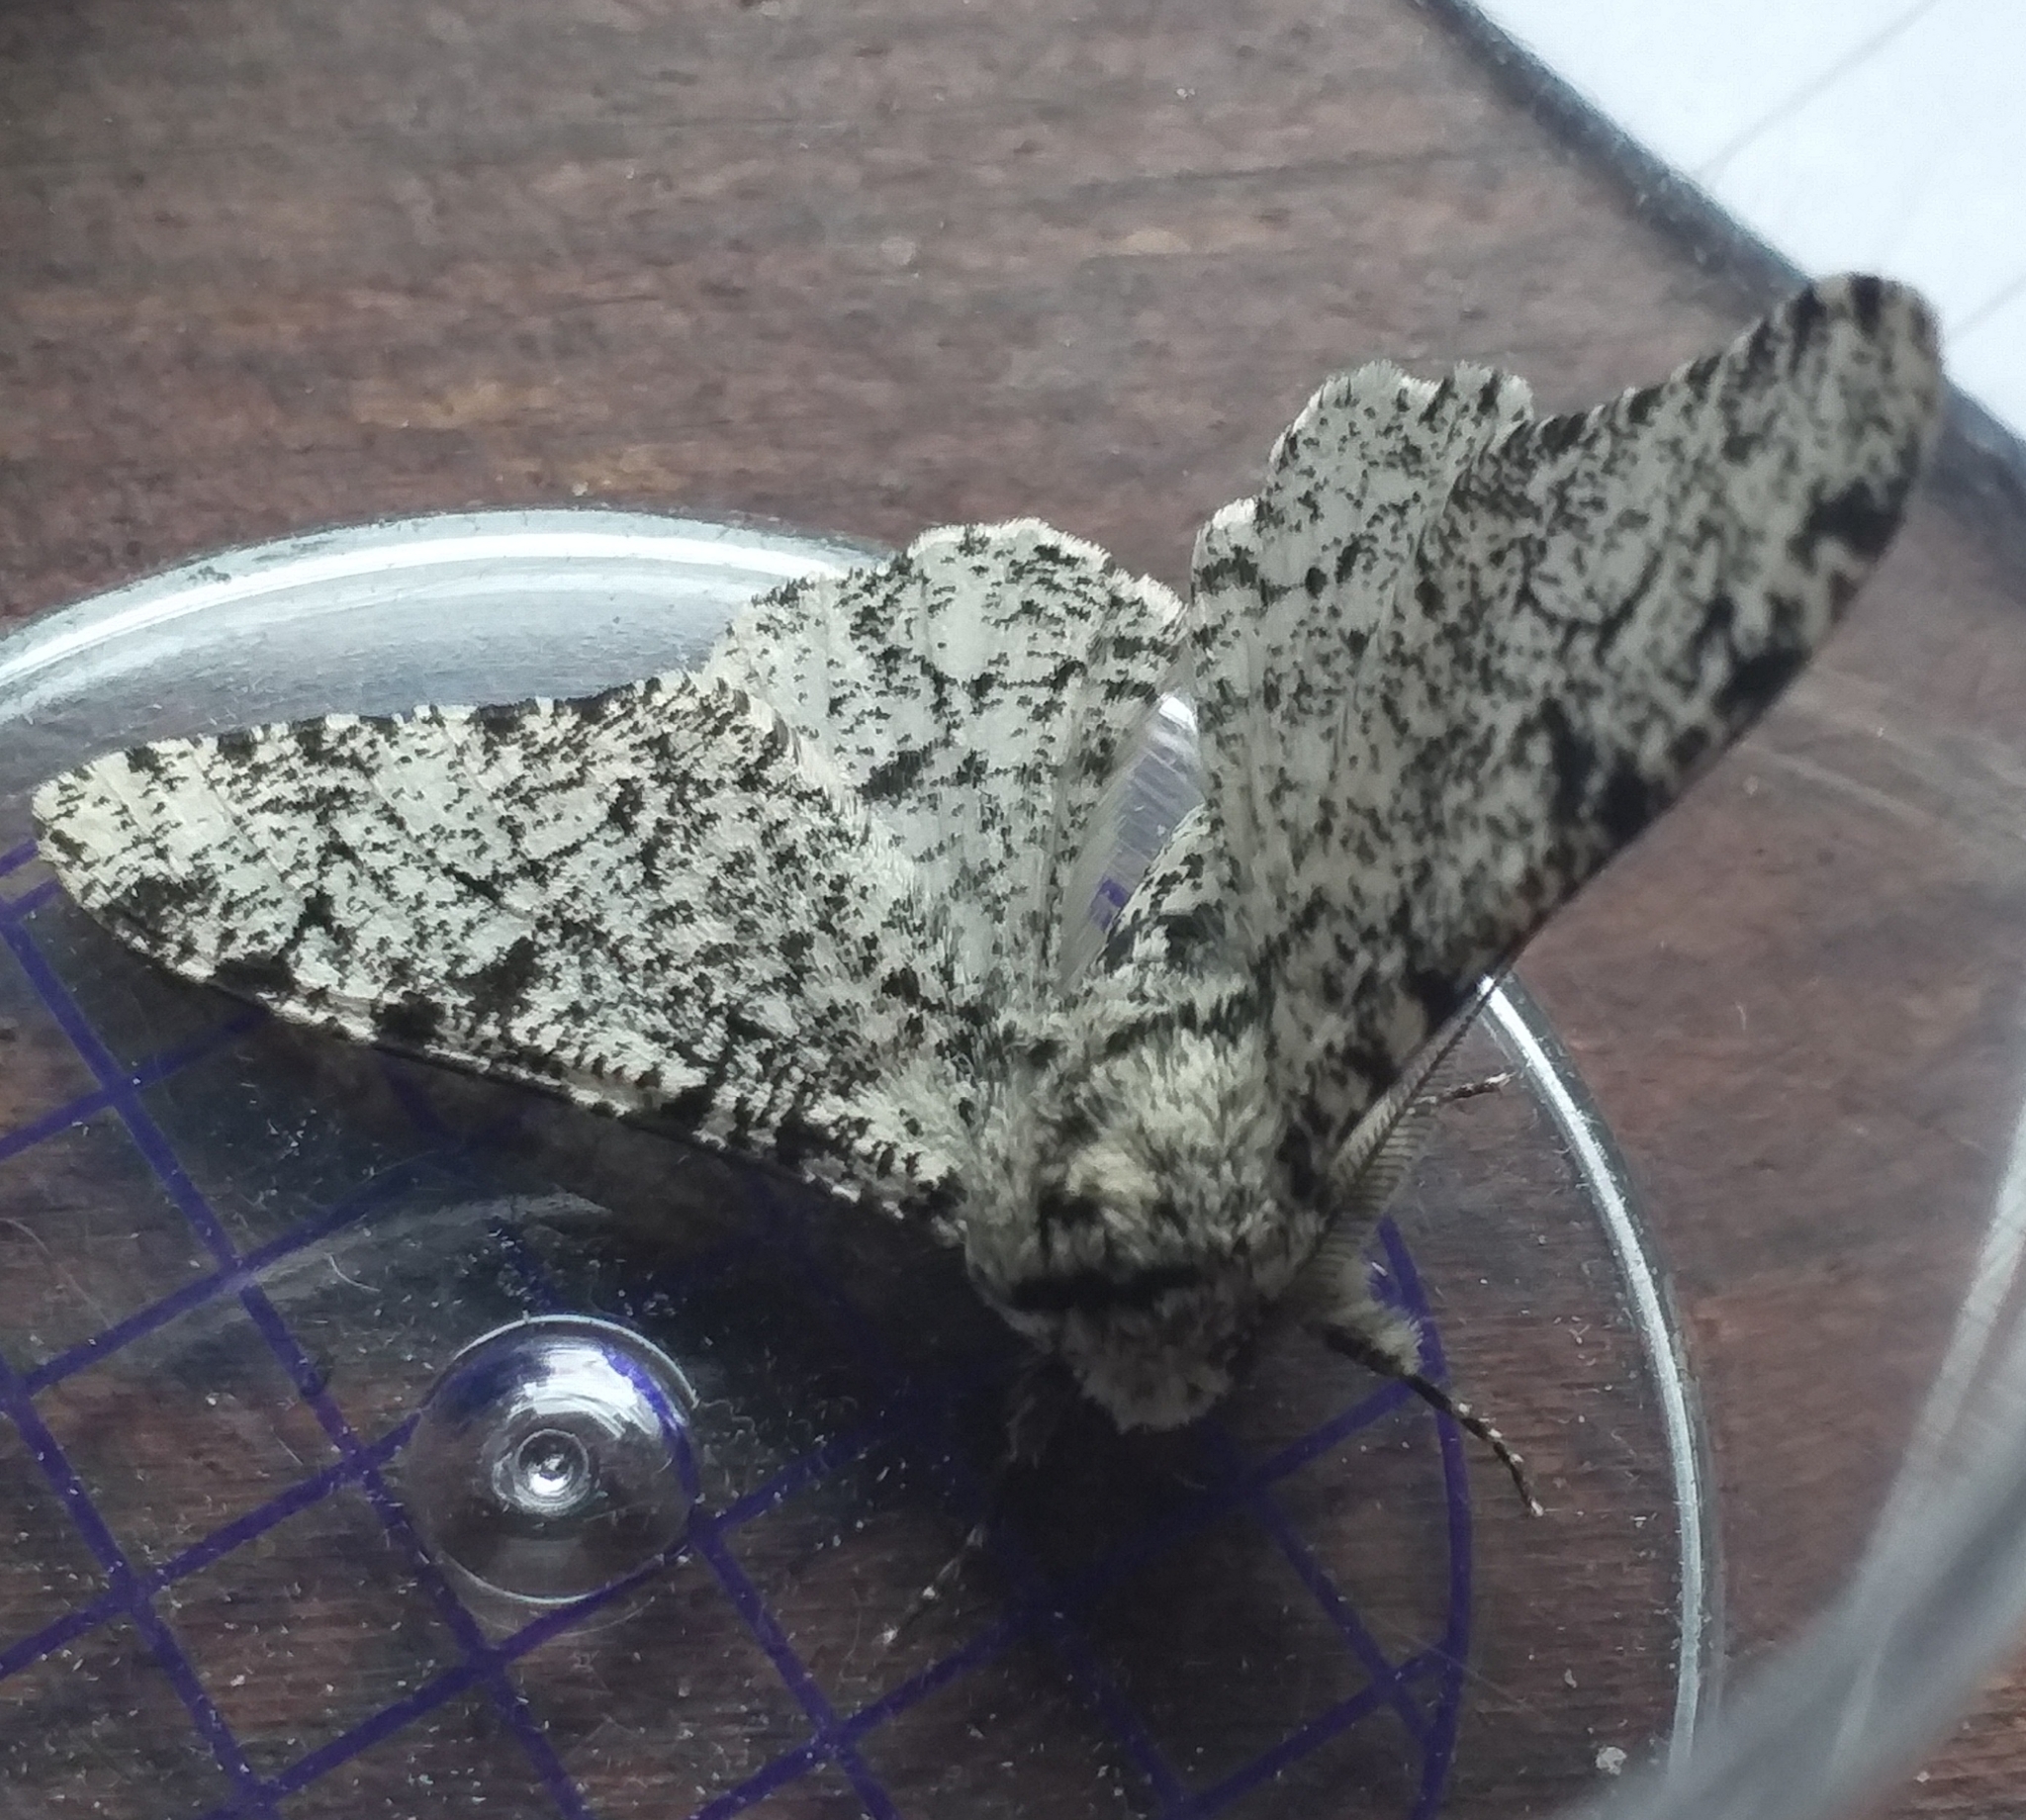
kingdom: Animalia
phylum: Arthropoda
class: Insecta
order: Lepidoptera
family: Geometridae
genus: Biston
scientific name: Biston betularia
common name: Peppered moth
